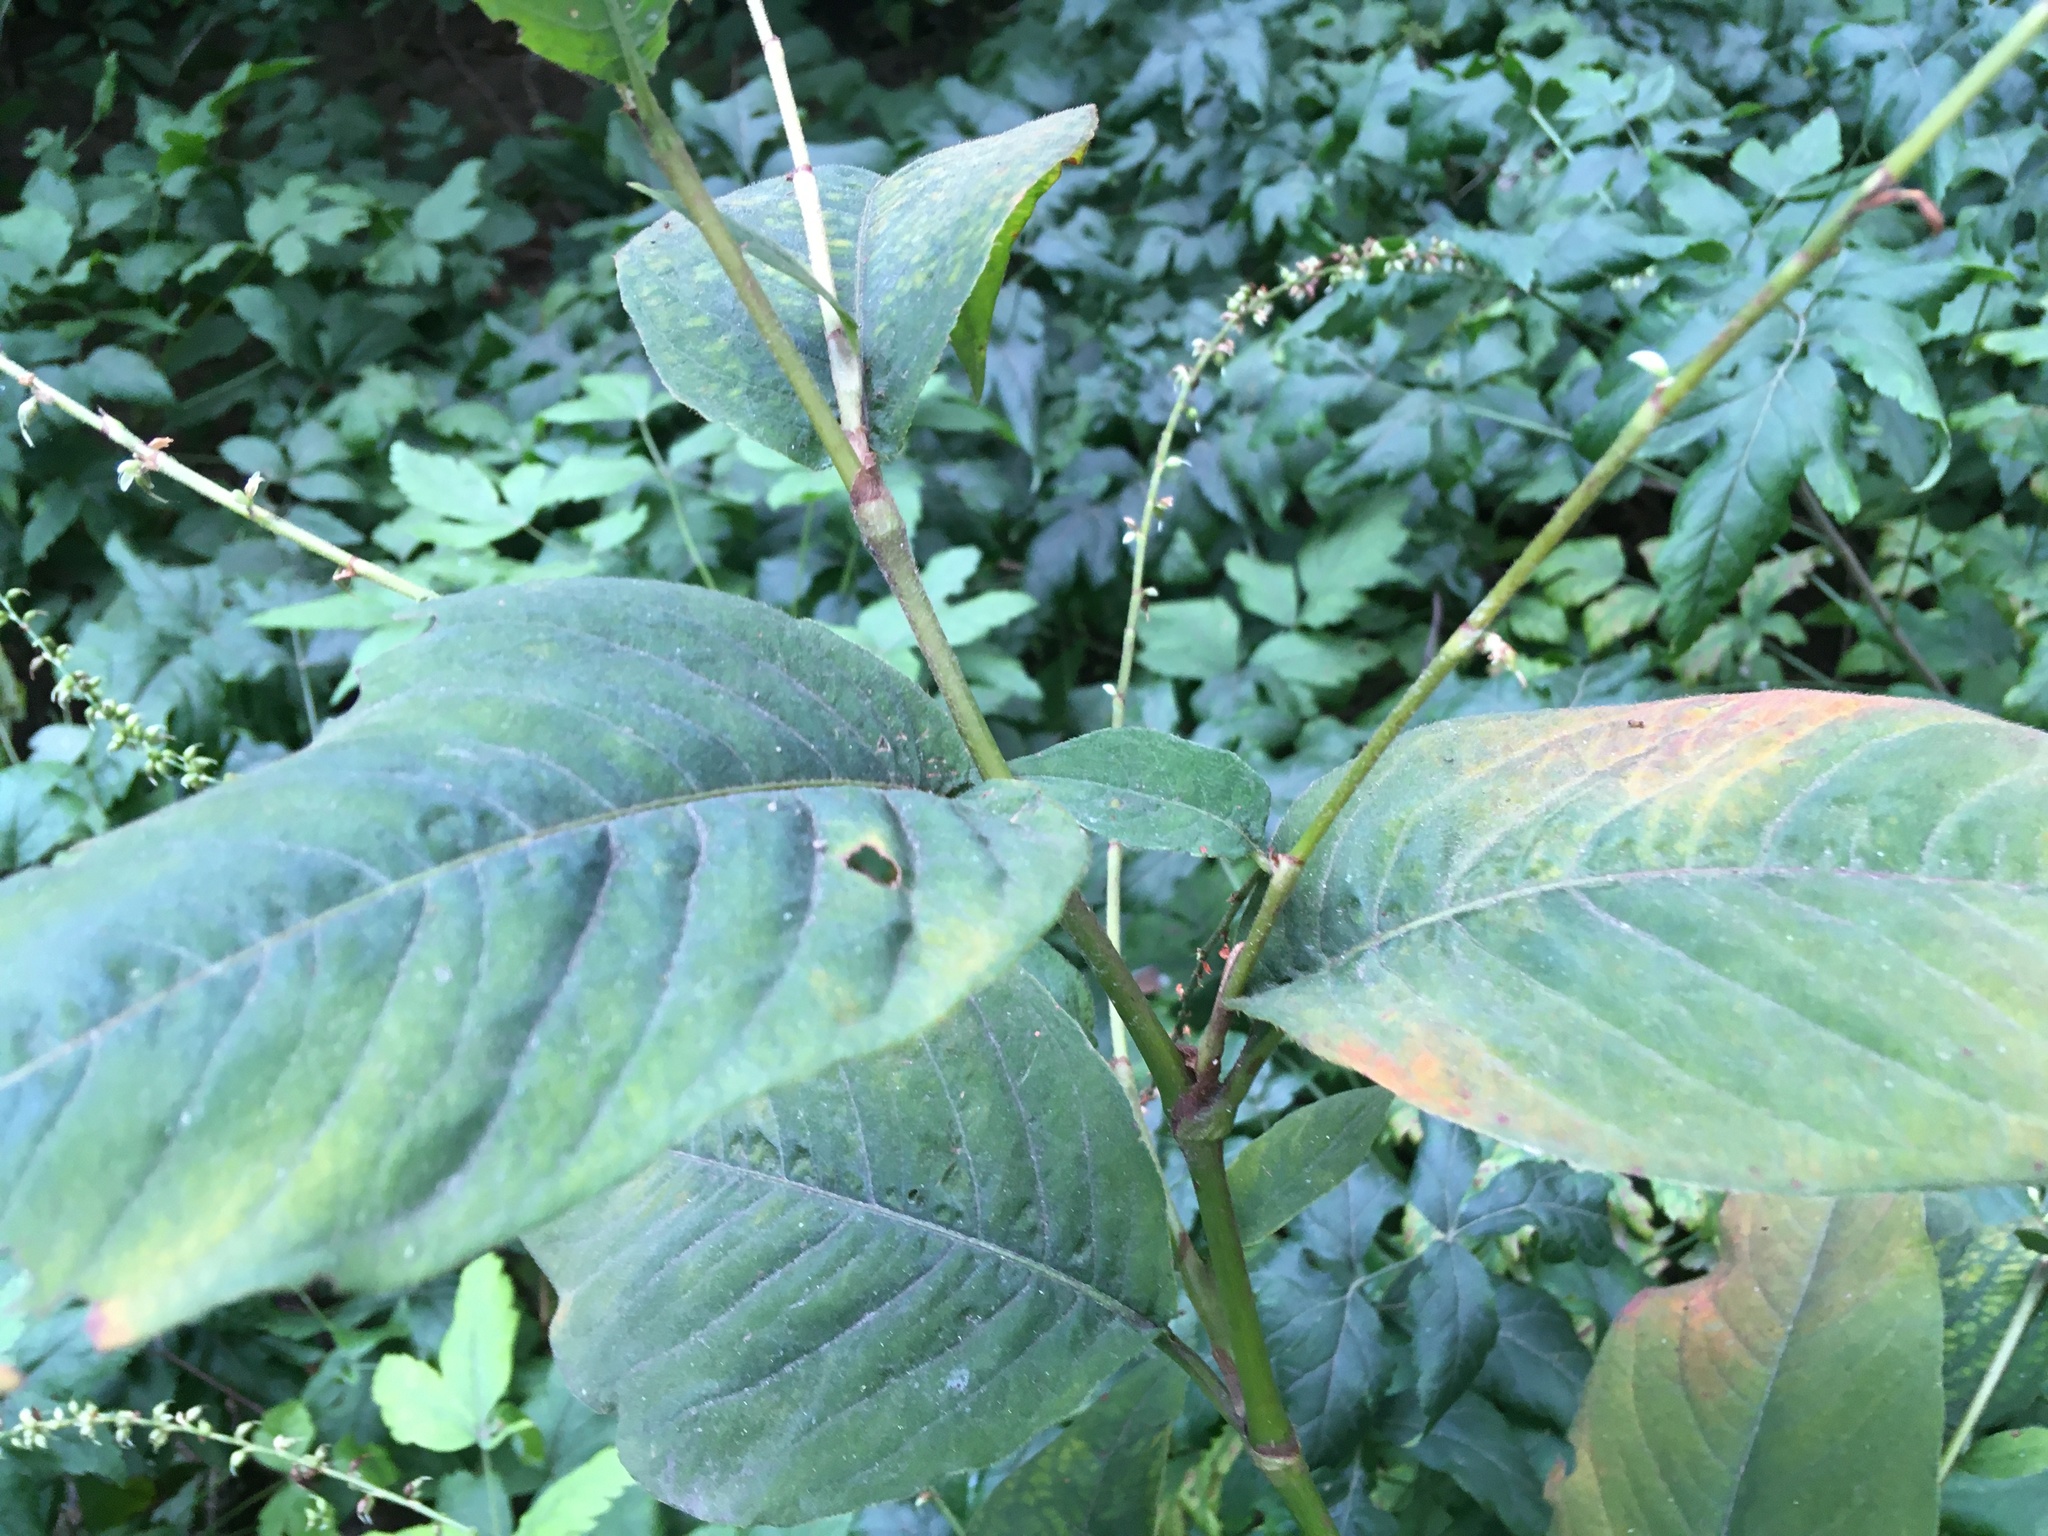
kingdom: Plantae
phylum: Tracheophyta
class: Magnoliopsida
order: Caryophyllales
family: Polygonaceae
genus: Persicaria
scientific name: Persicaria virginiana
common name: Jumpseed
